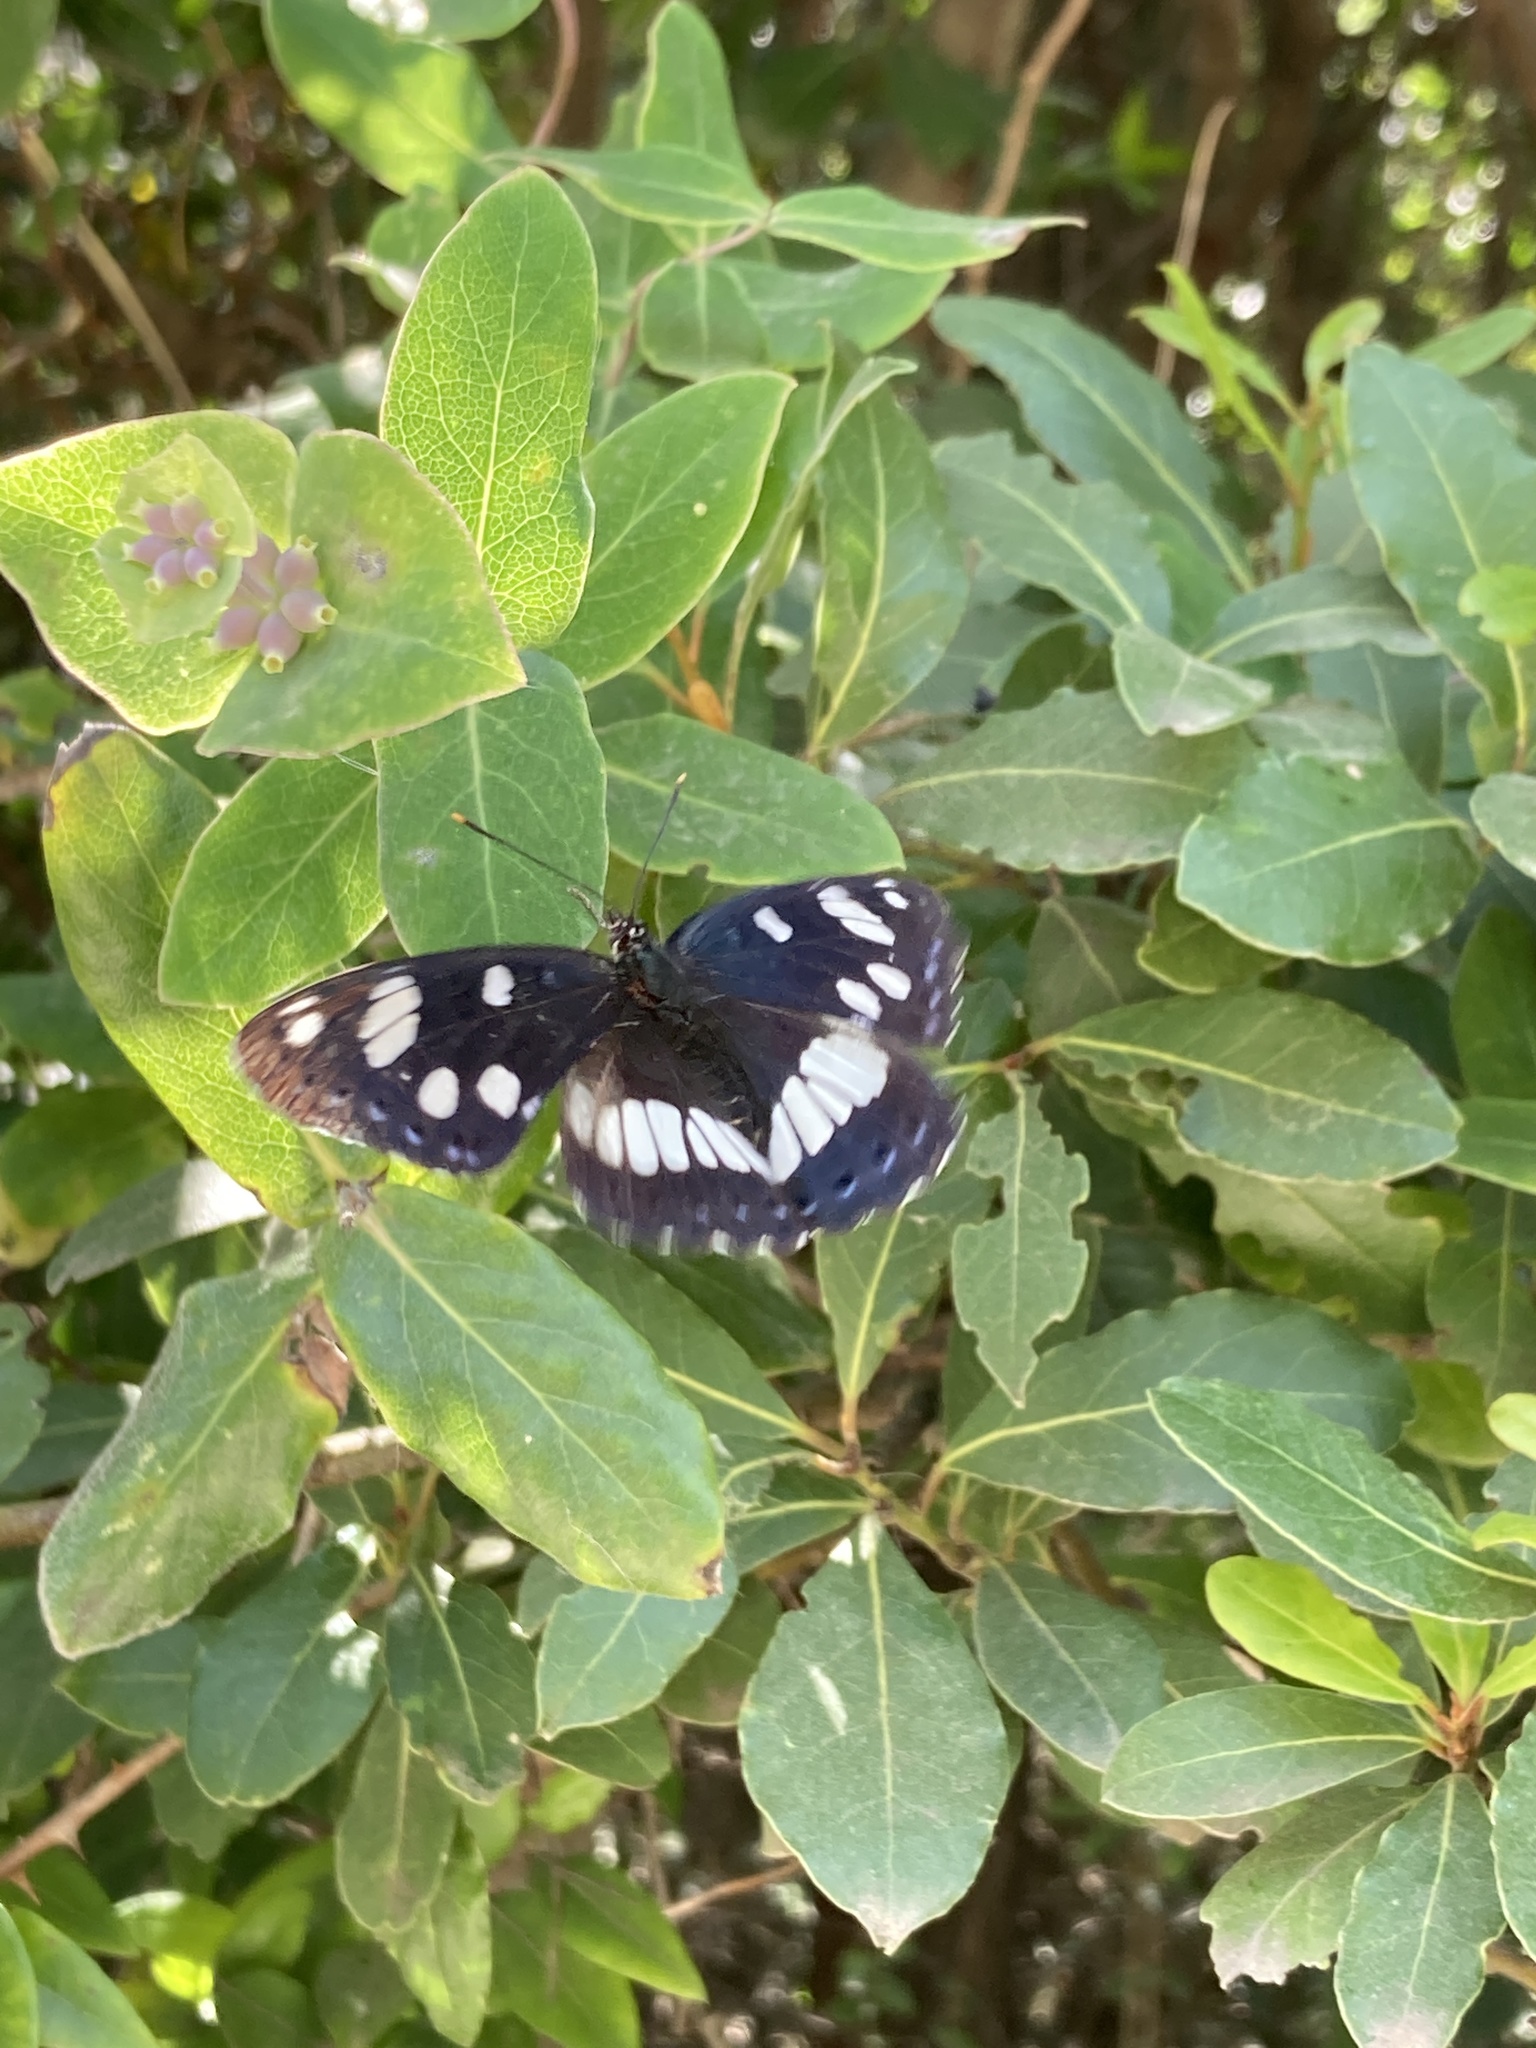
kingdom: Animalia
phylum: Arthropoda
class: Insecta
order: Lepidoptera
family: Nymphalidae
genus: Limenitis
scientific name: Limenitis reducta
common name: Southern white admiral
